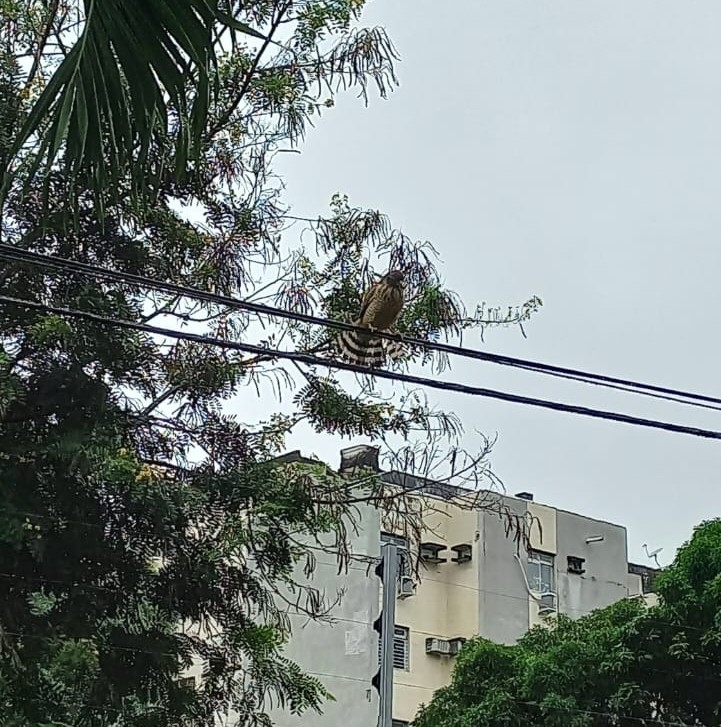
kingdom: Animalia
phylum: Chordata
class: Aves
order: Accipitriformes
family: Accipitridae
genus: Rupornis
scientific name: Rupornis magnirostris
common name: Roadside hawk
